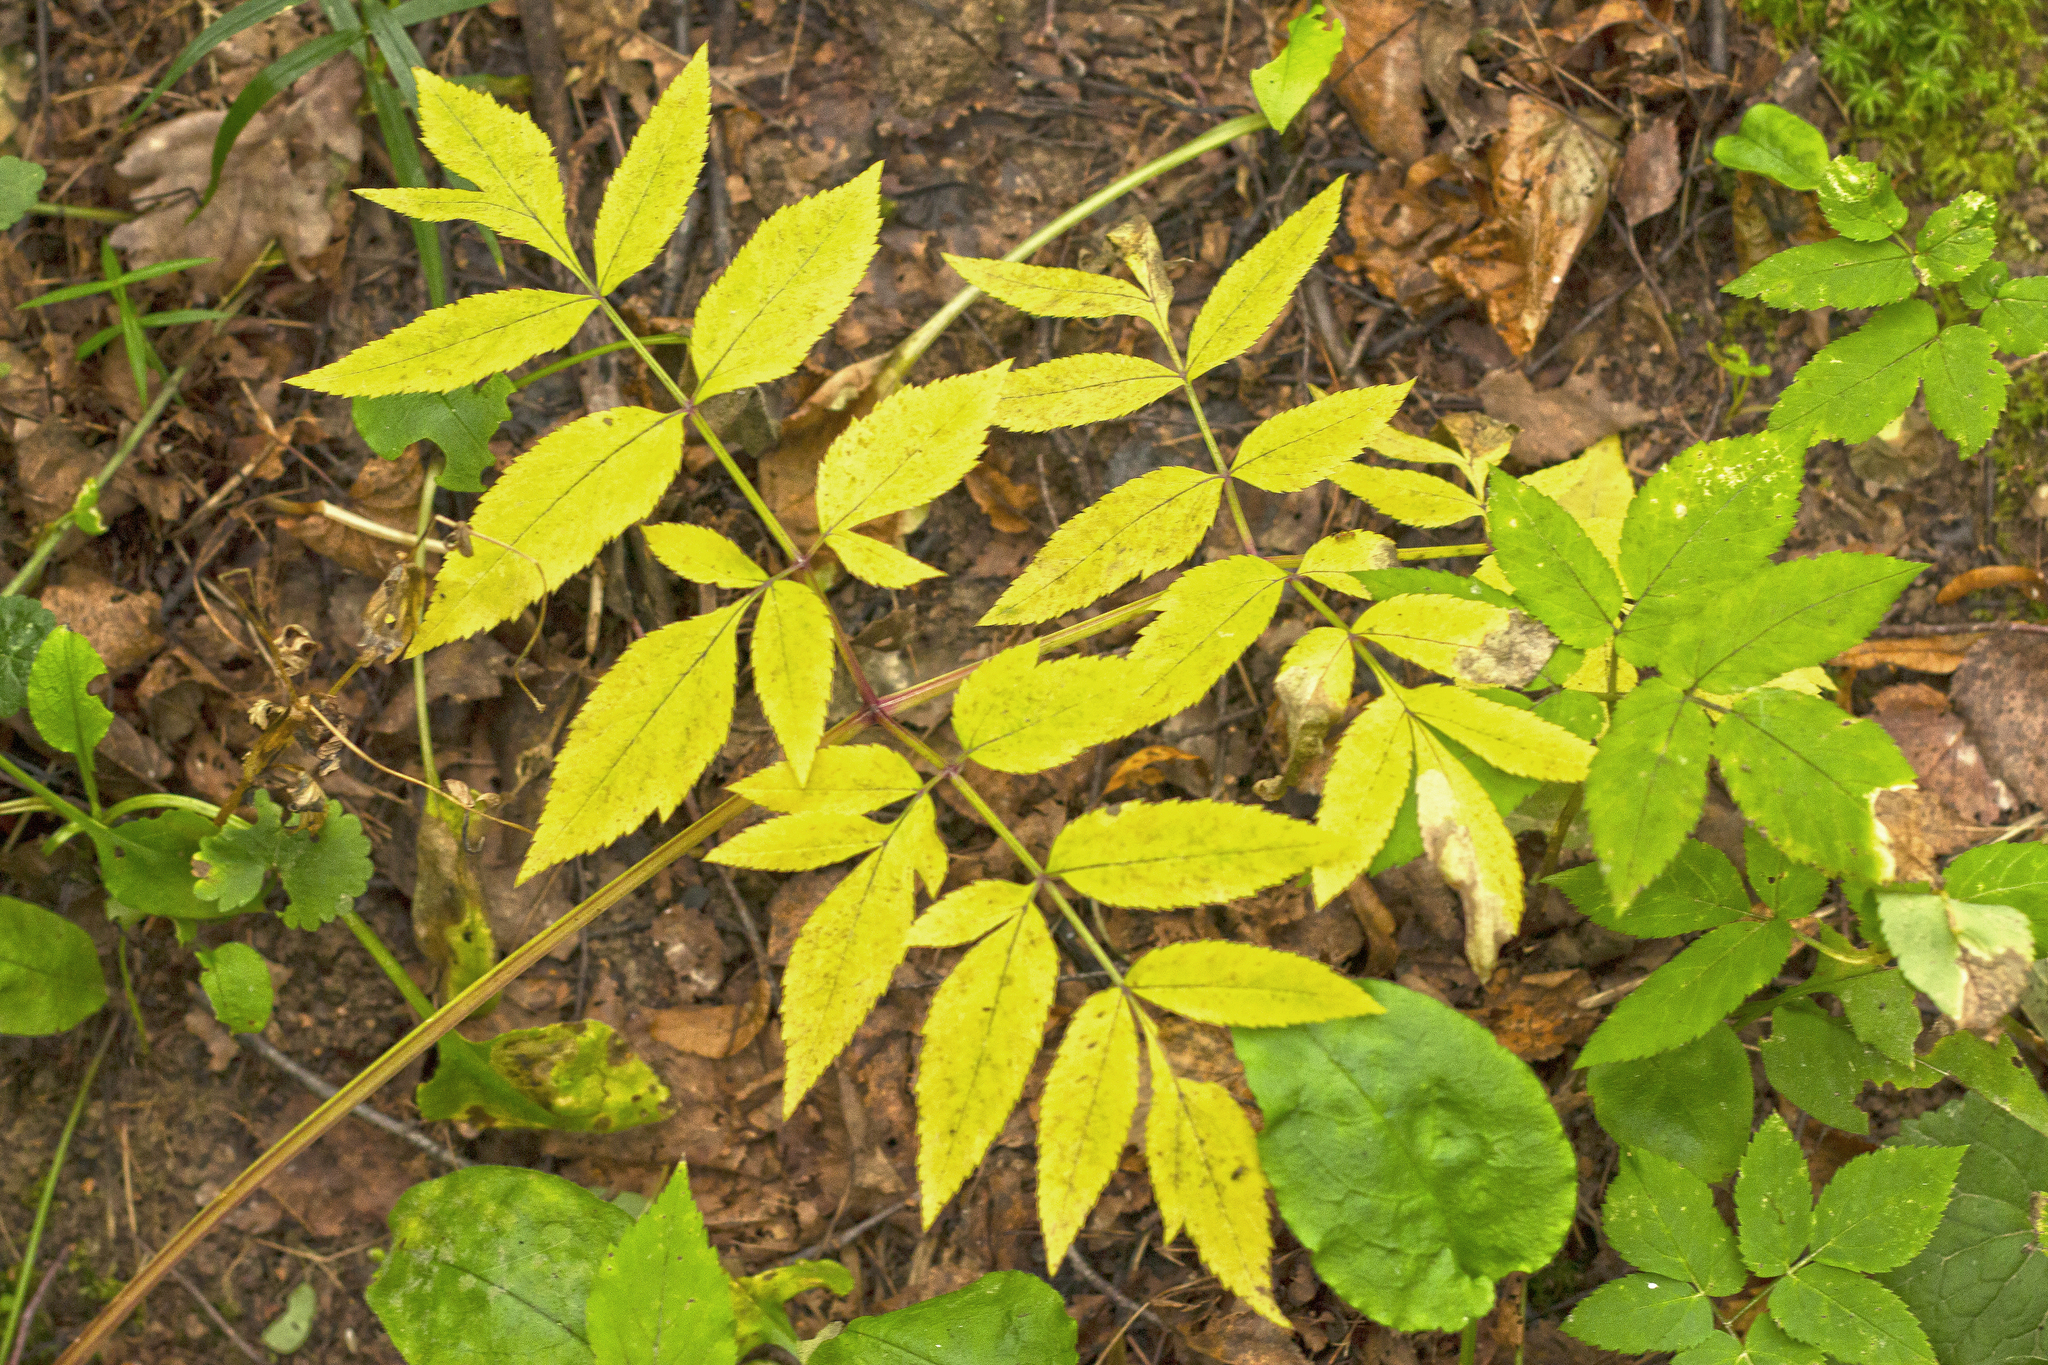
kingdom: Plantae
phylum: Tracheophyta
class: Magnoliopsida
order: Apiales
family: Apiaceae
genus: Angelica
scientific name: Angelica sylvestris
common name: Wild angelica
